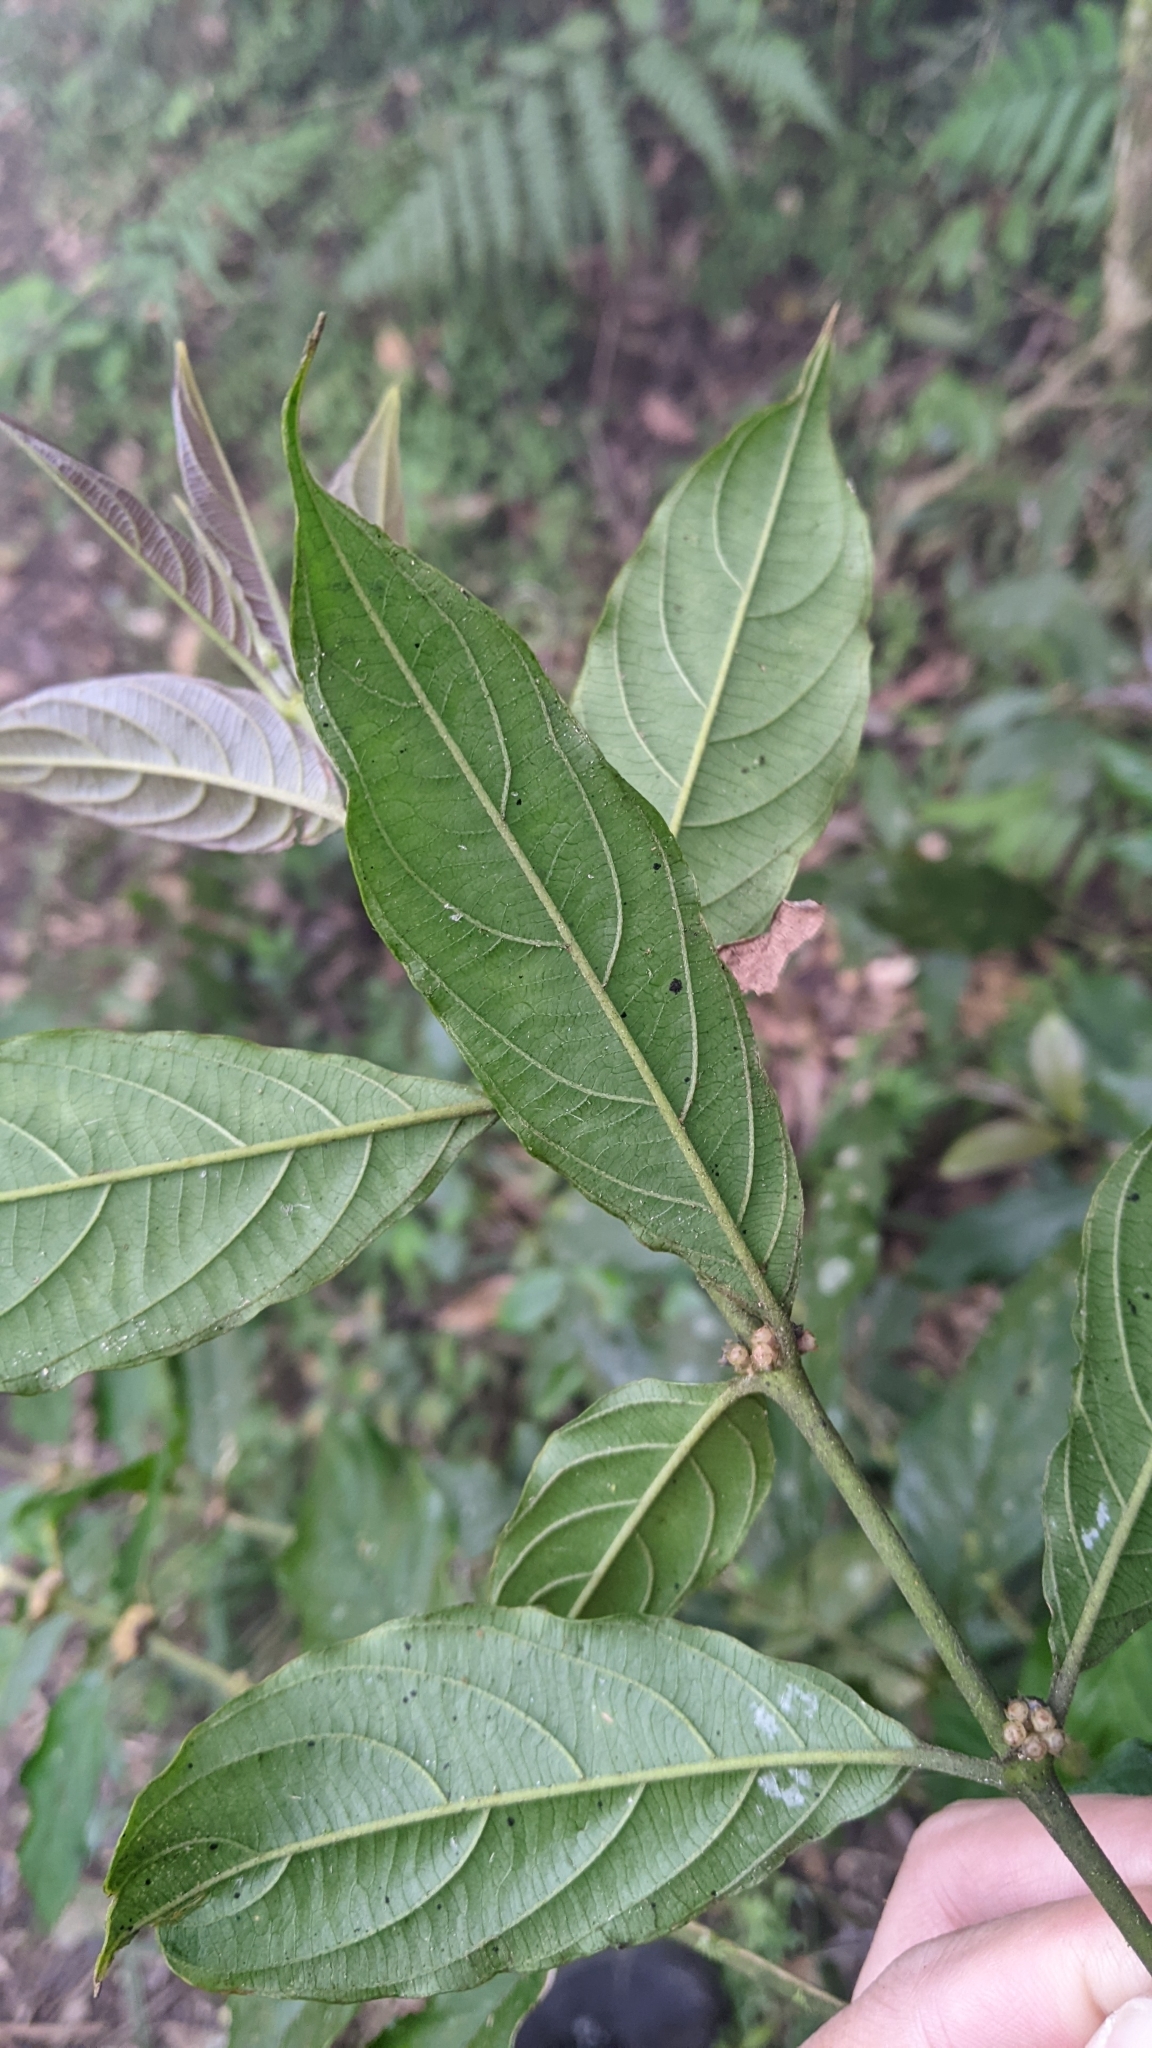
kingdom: Plantae
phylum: Tracheophyta
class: Magnoliopsida
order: Gentianales
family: Rubiaceae
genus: Lasianthus
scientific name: Lasianthus fordii
